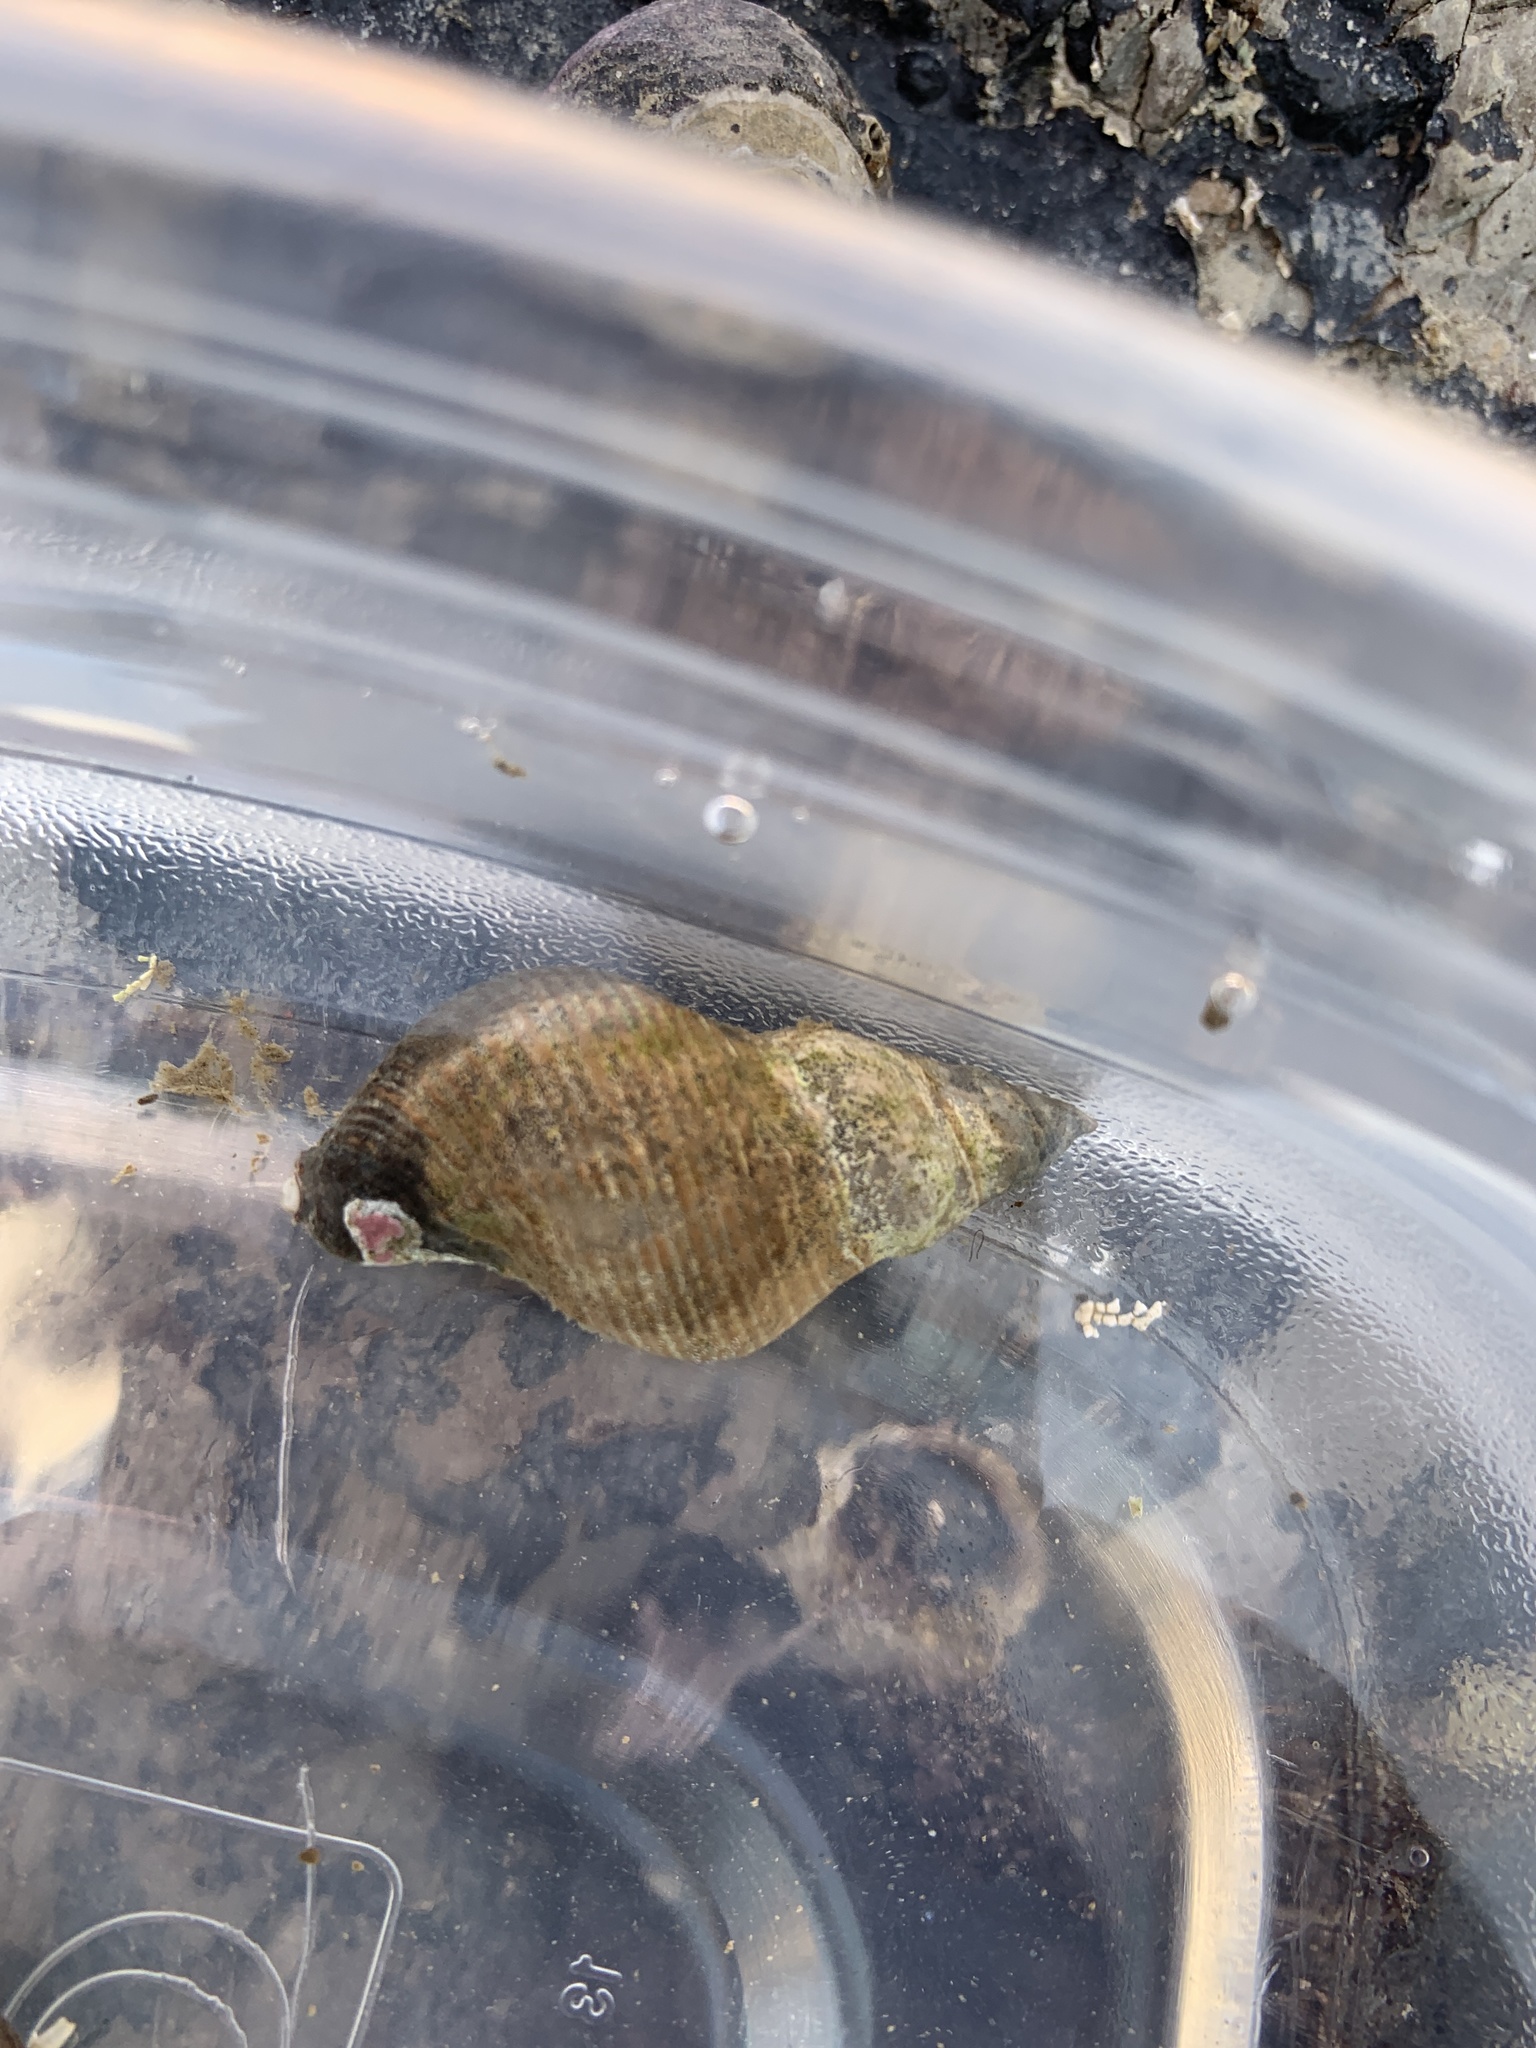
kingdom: Animalia
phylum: Mollusca
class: Gastropoda
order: Neogastropoda
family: Tudiclidae
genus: Lirabuccinum
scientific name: Lirabuccinum dirum
